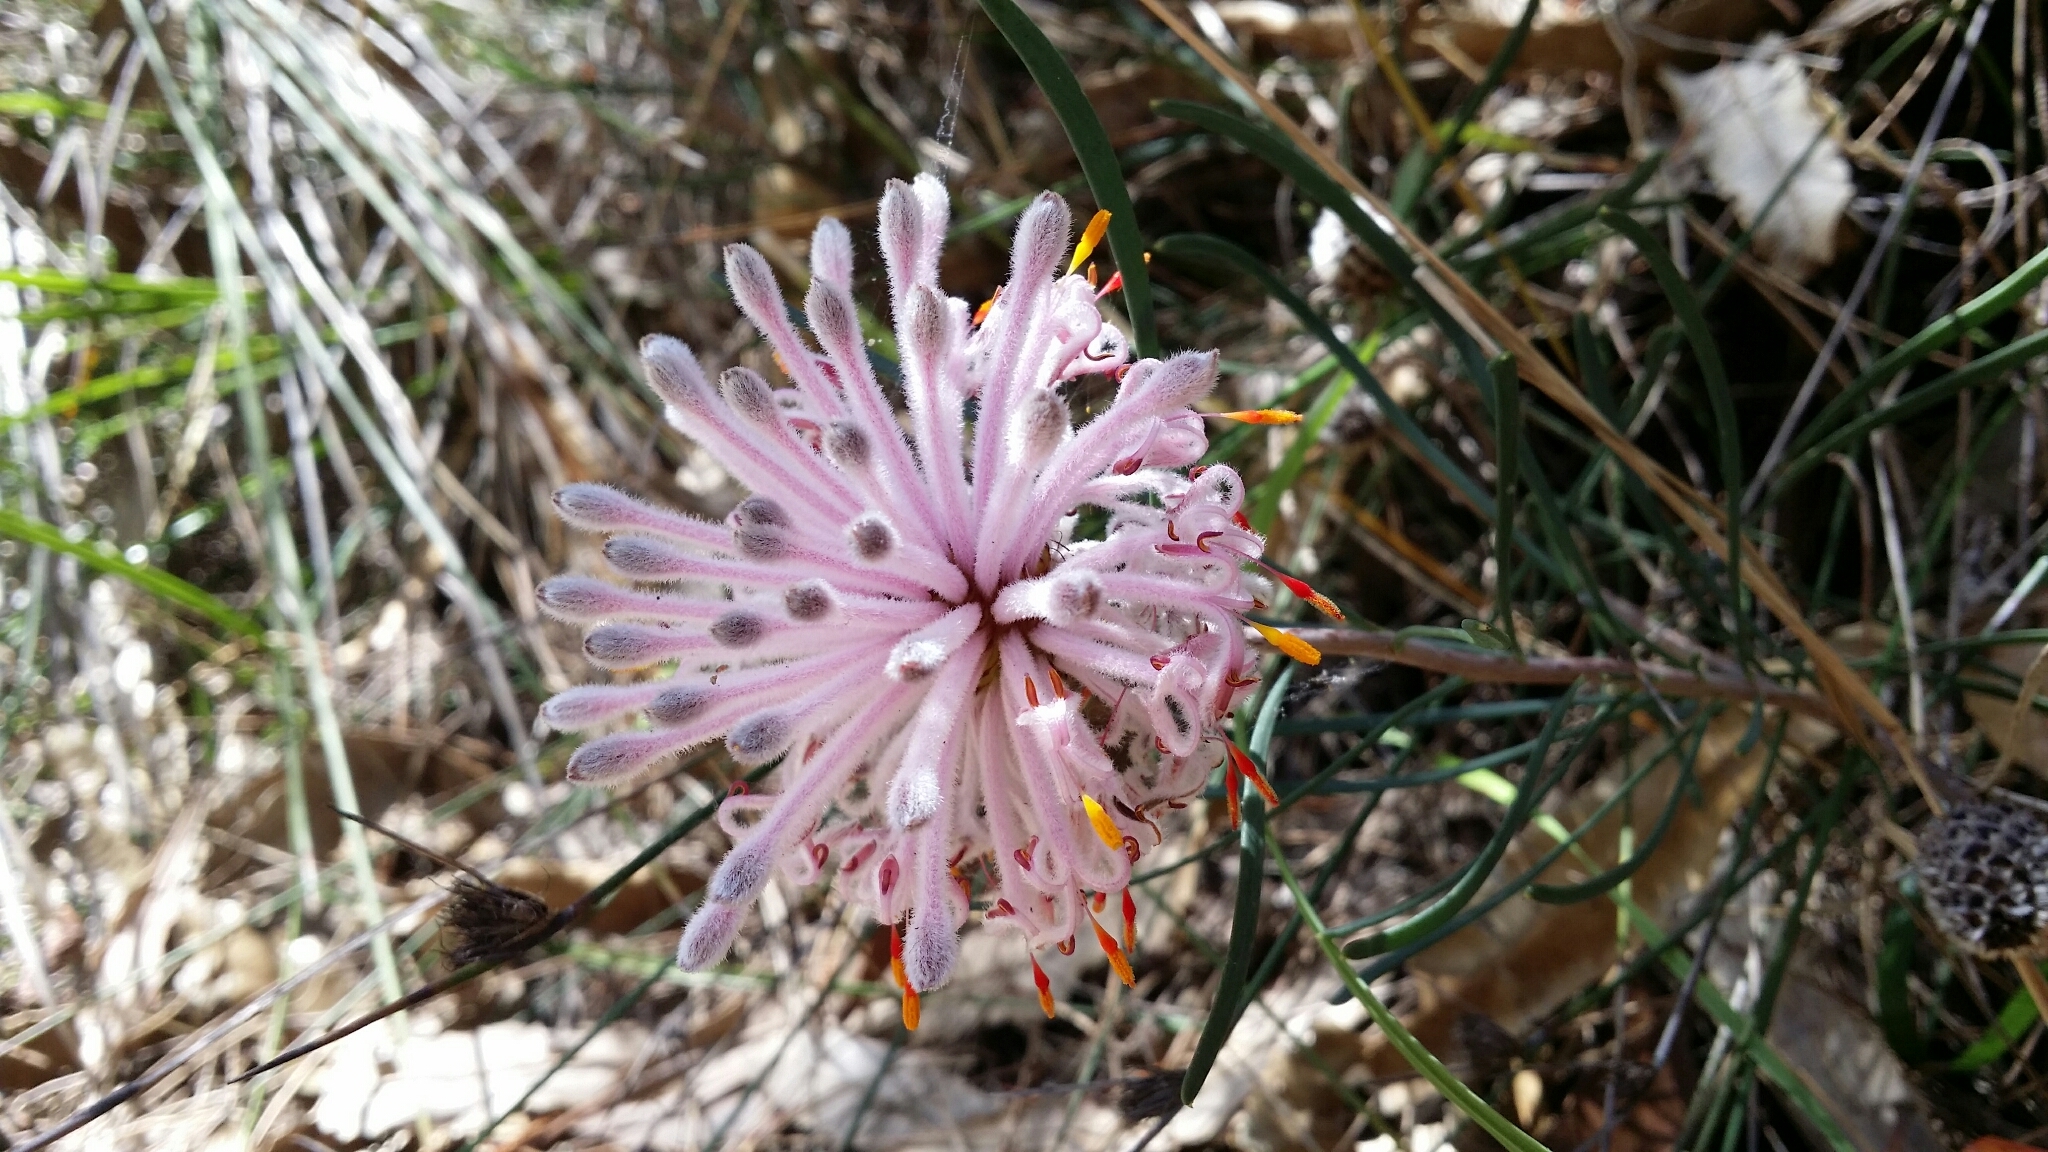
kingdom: Plantae
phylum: Tracheophyta
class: Magnoliopsida
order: Proteales
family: Proteaceae
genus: Petrophile
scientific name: Petrophile linearis
